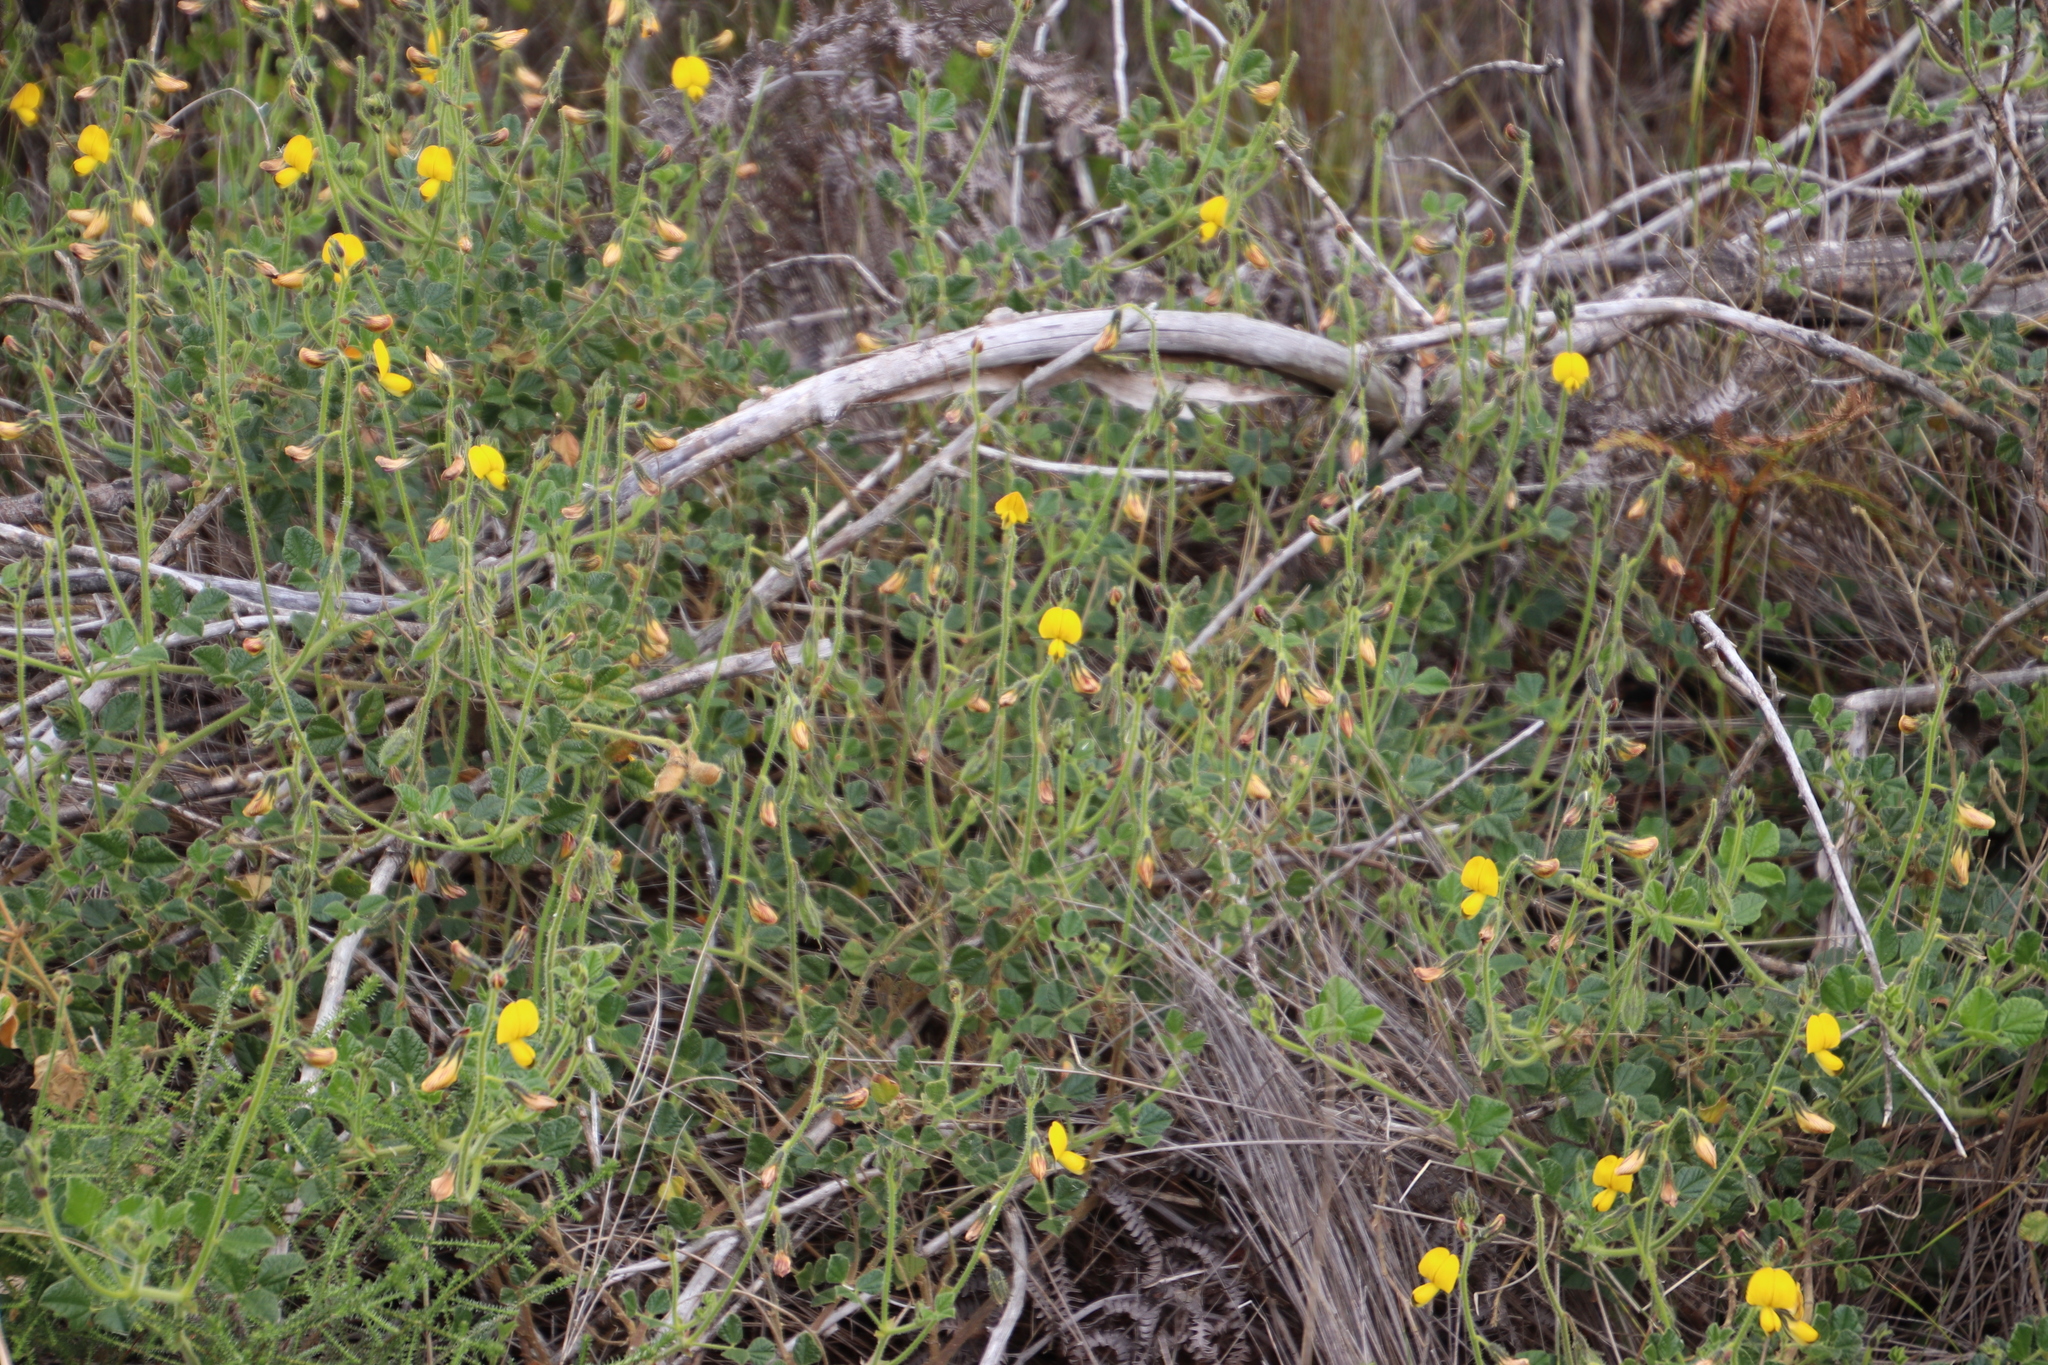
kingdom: Plantae
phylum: Tracheophyta
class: Magnoliopsida
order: Fabales
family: Fabaceae
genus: Bolusafra
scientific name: Bolusafra bituminosa
